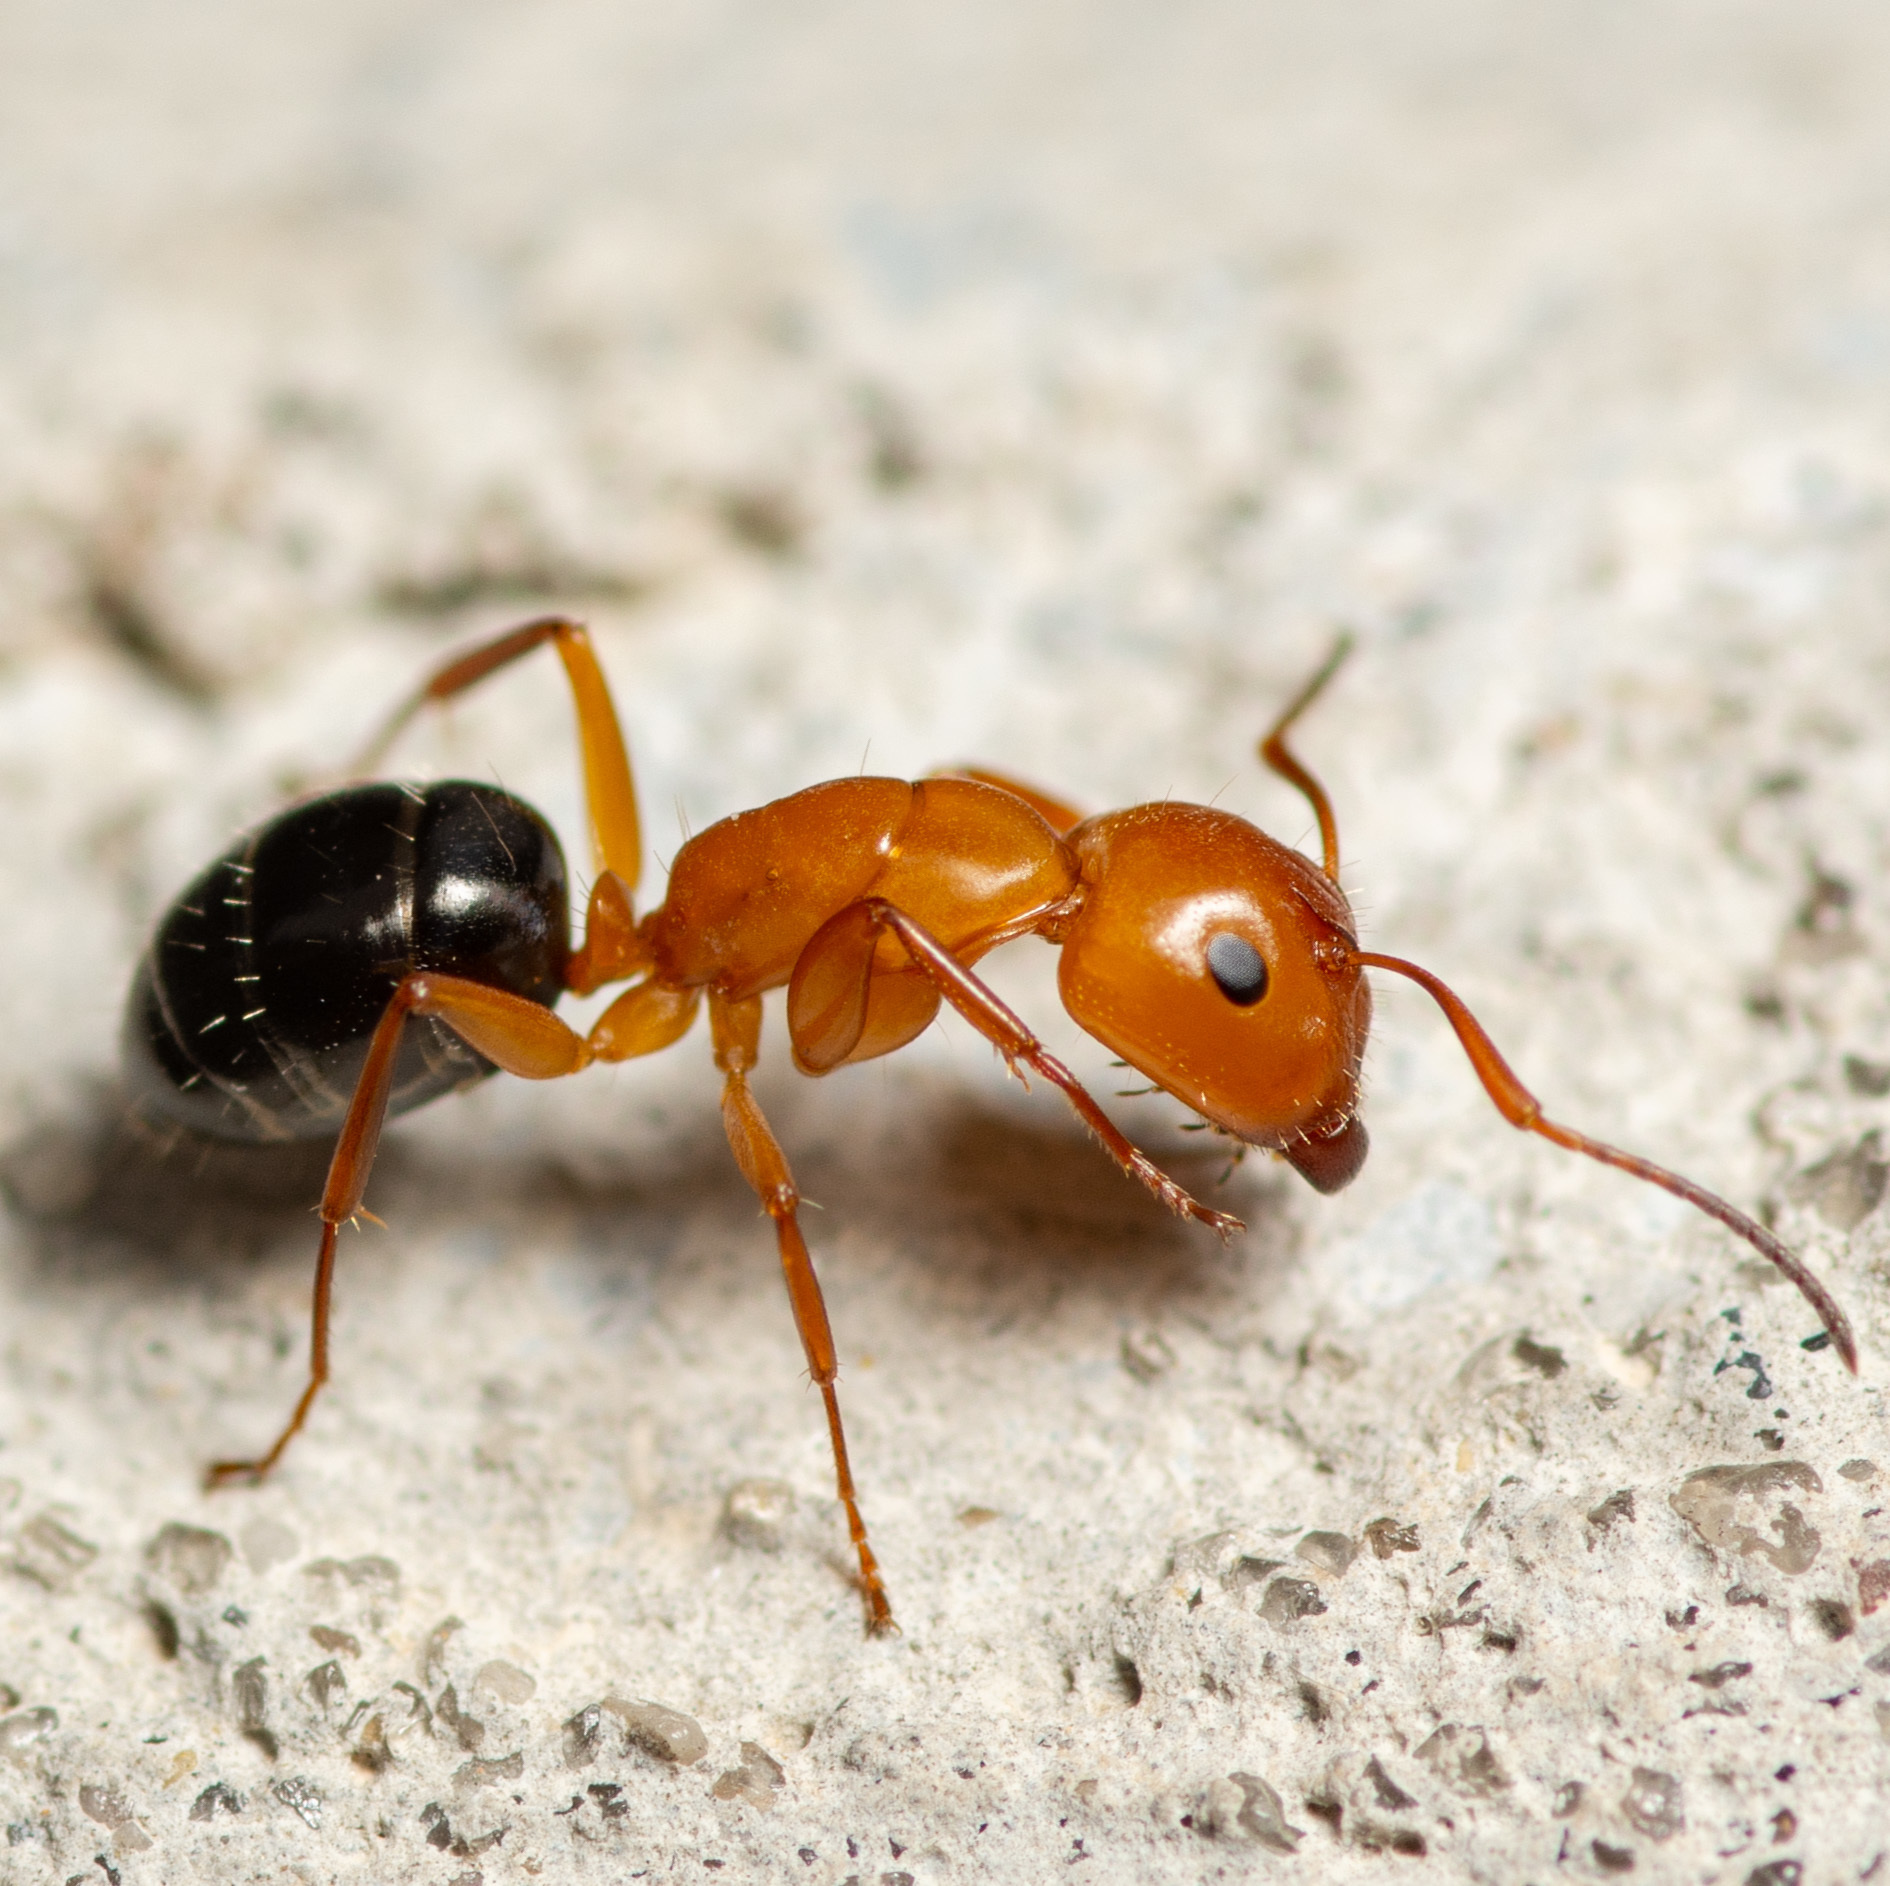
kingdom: Animalia
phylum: Arthropoda
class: Insecta
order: Hymenoptera
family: Formicidae
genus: Camponotus
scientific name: Camponotus discolor
